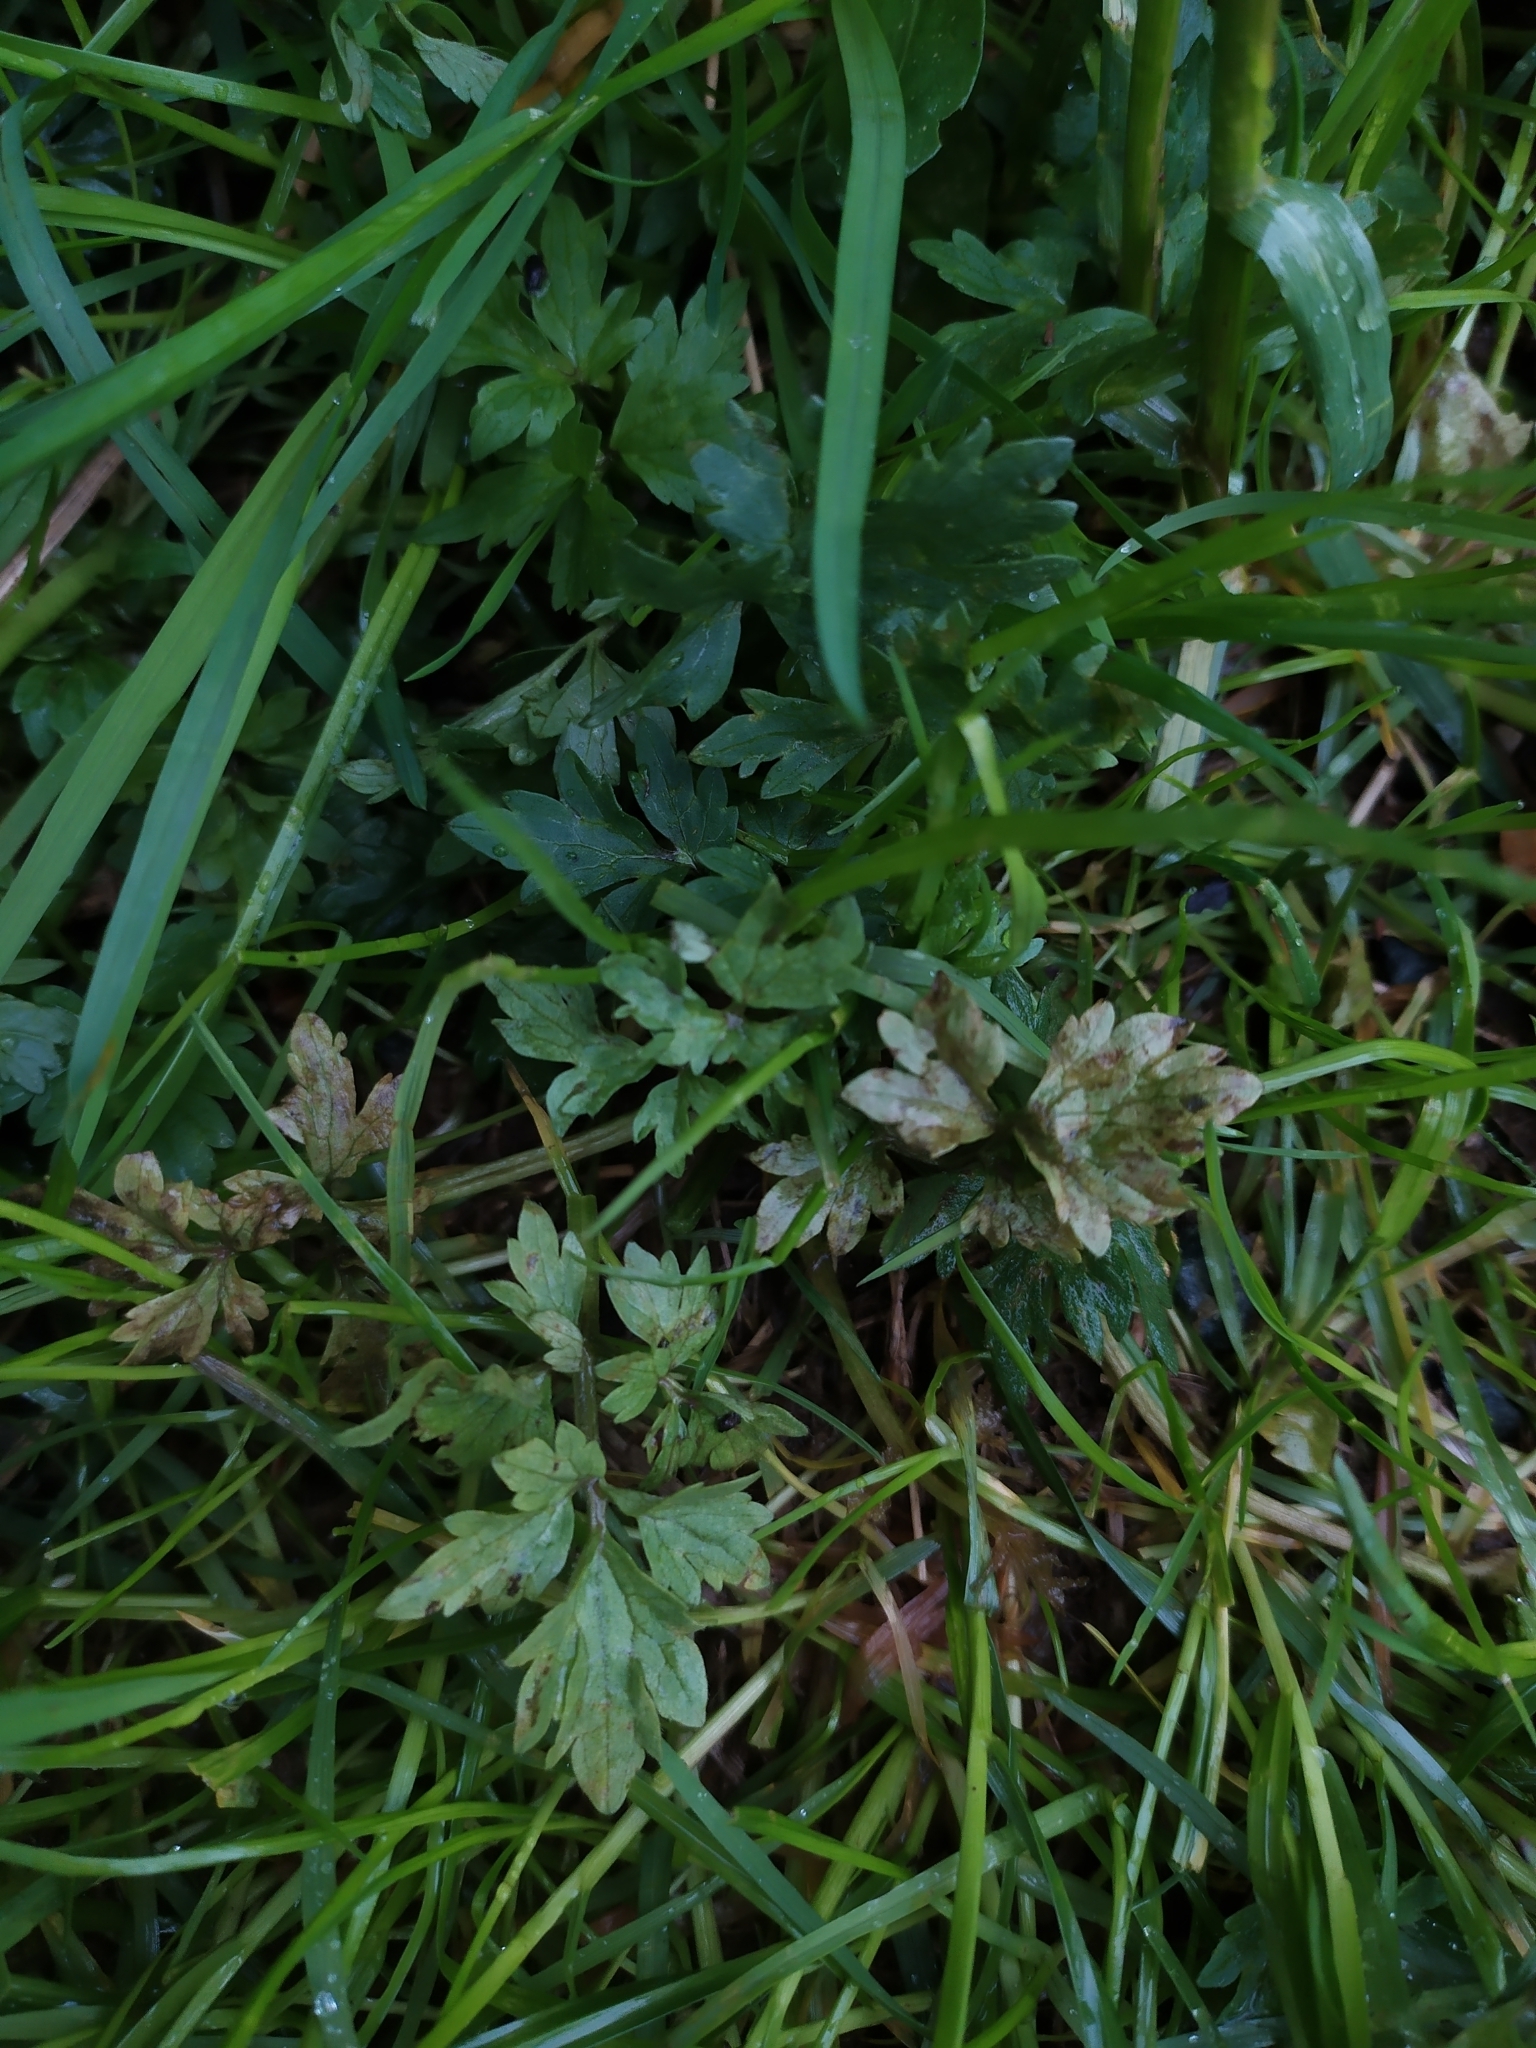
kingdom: Plantae
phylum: Tracheophyta
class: Magnoliopsida
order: Ranunculales
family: Ranunculaceae
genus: Ranunculus
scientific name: Ranunculus repens
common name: Creeping buttercup
